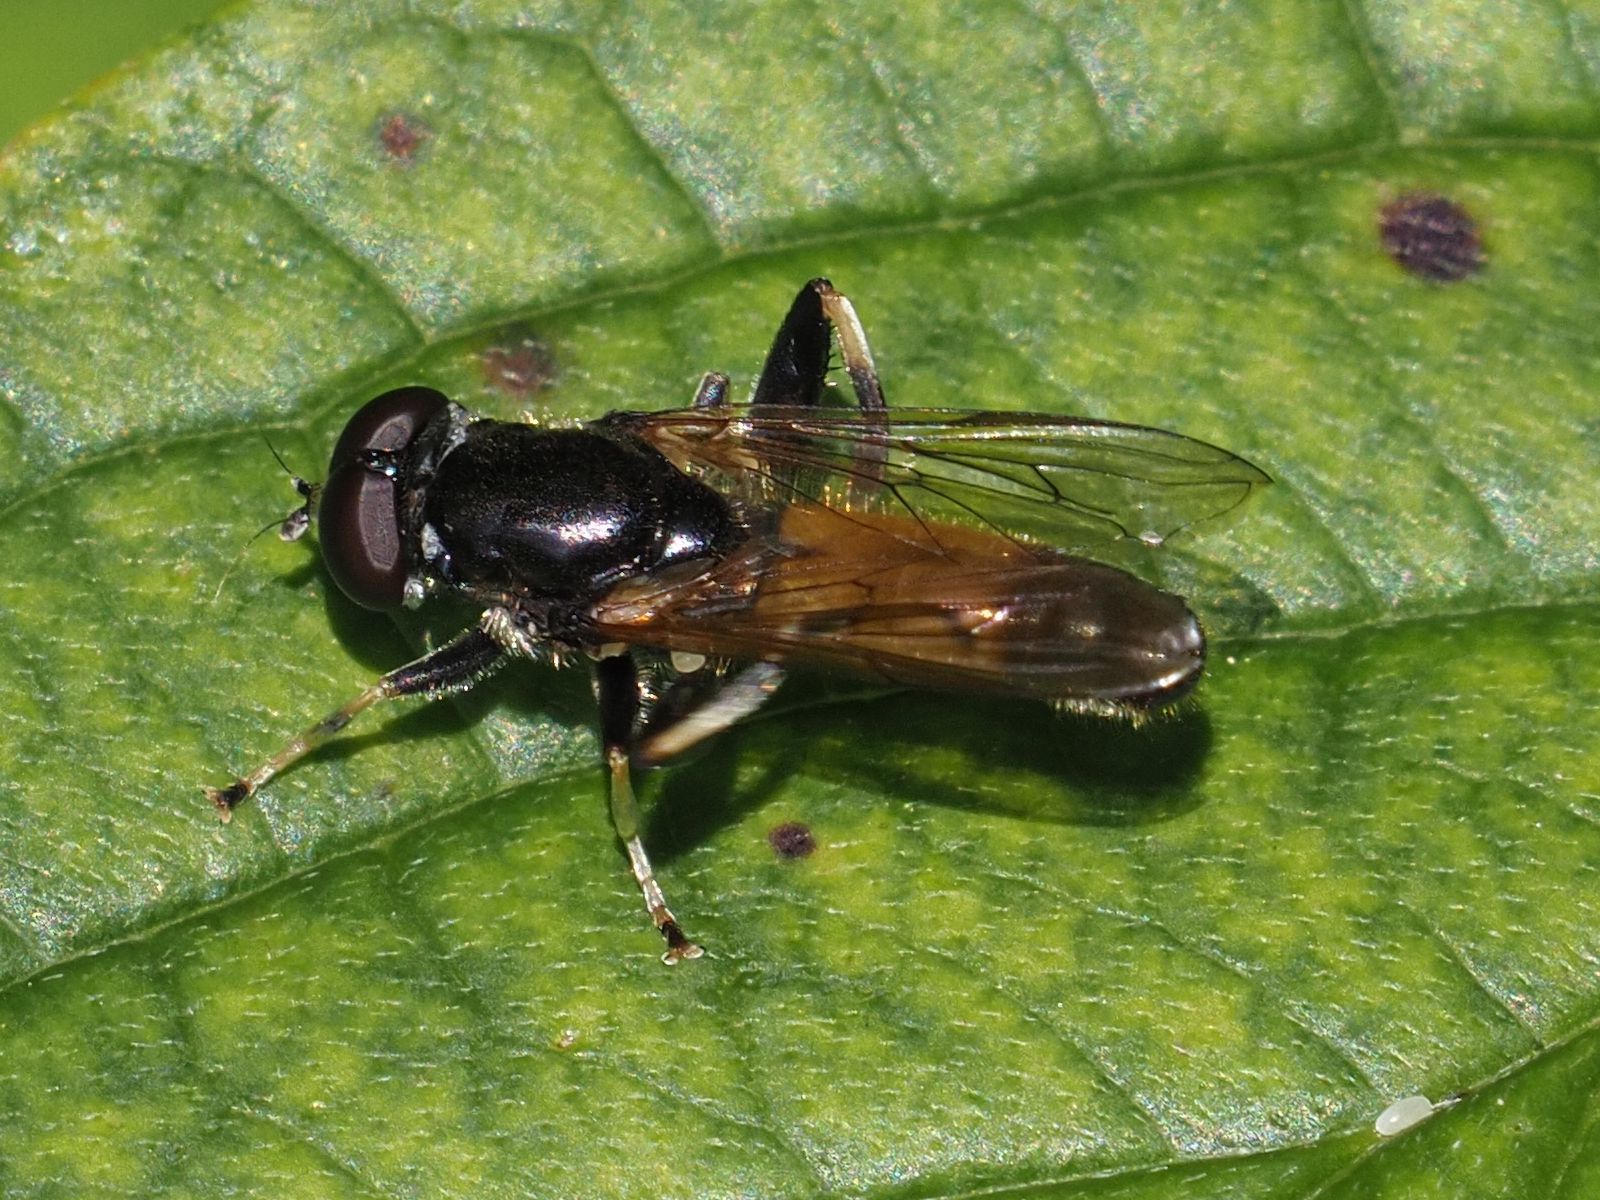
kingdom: Animalia
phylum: Arthropoda
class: Insecta
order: Diptera
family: Syrphidae
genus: Xylota
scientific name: Xylota segnis
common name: Brown-toed forest fly
